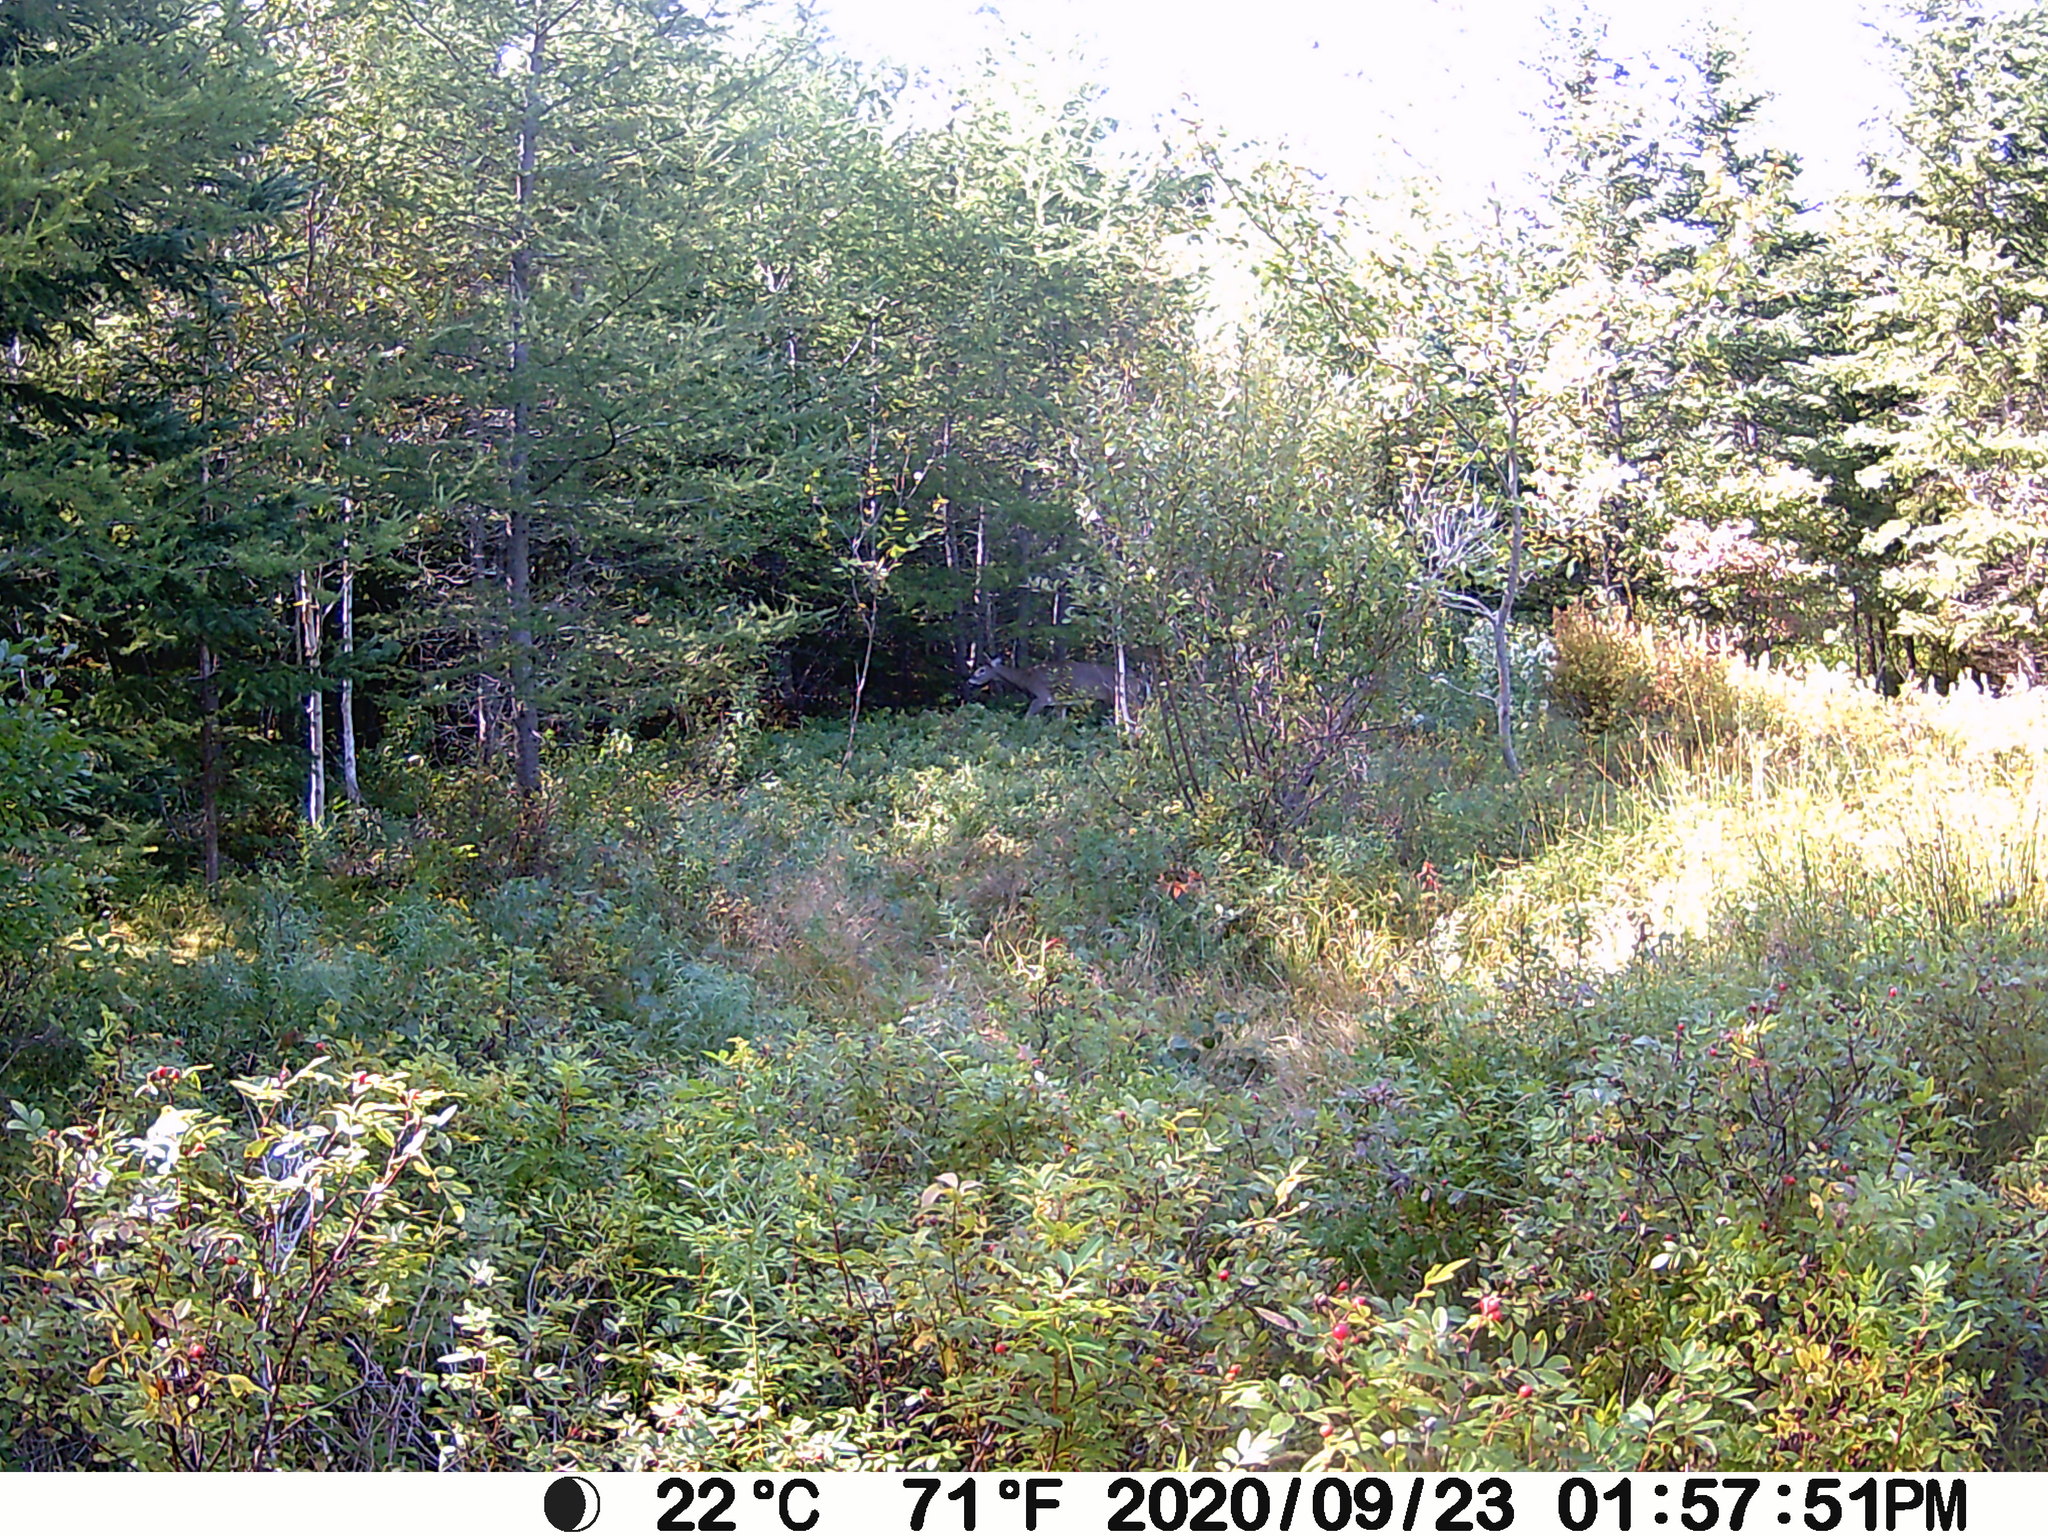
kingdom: Animalia
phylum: Chordata
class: Mammalia
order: Artiodactyla
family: Cervidae
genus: Odocoileus
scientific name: Odocoileus virginianus
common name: White-tailed deer
